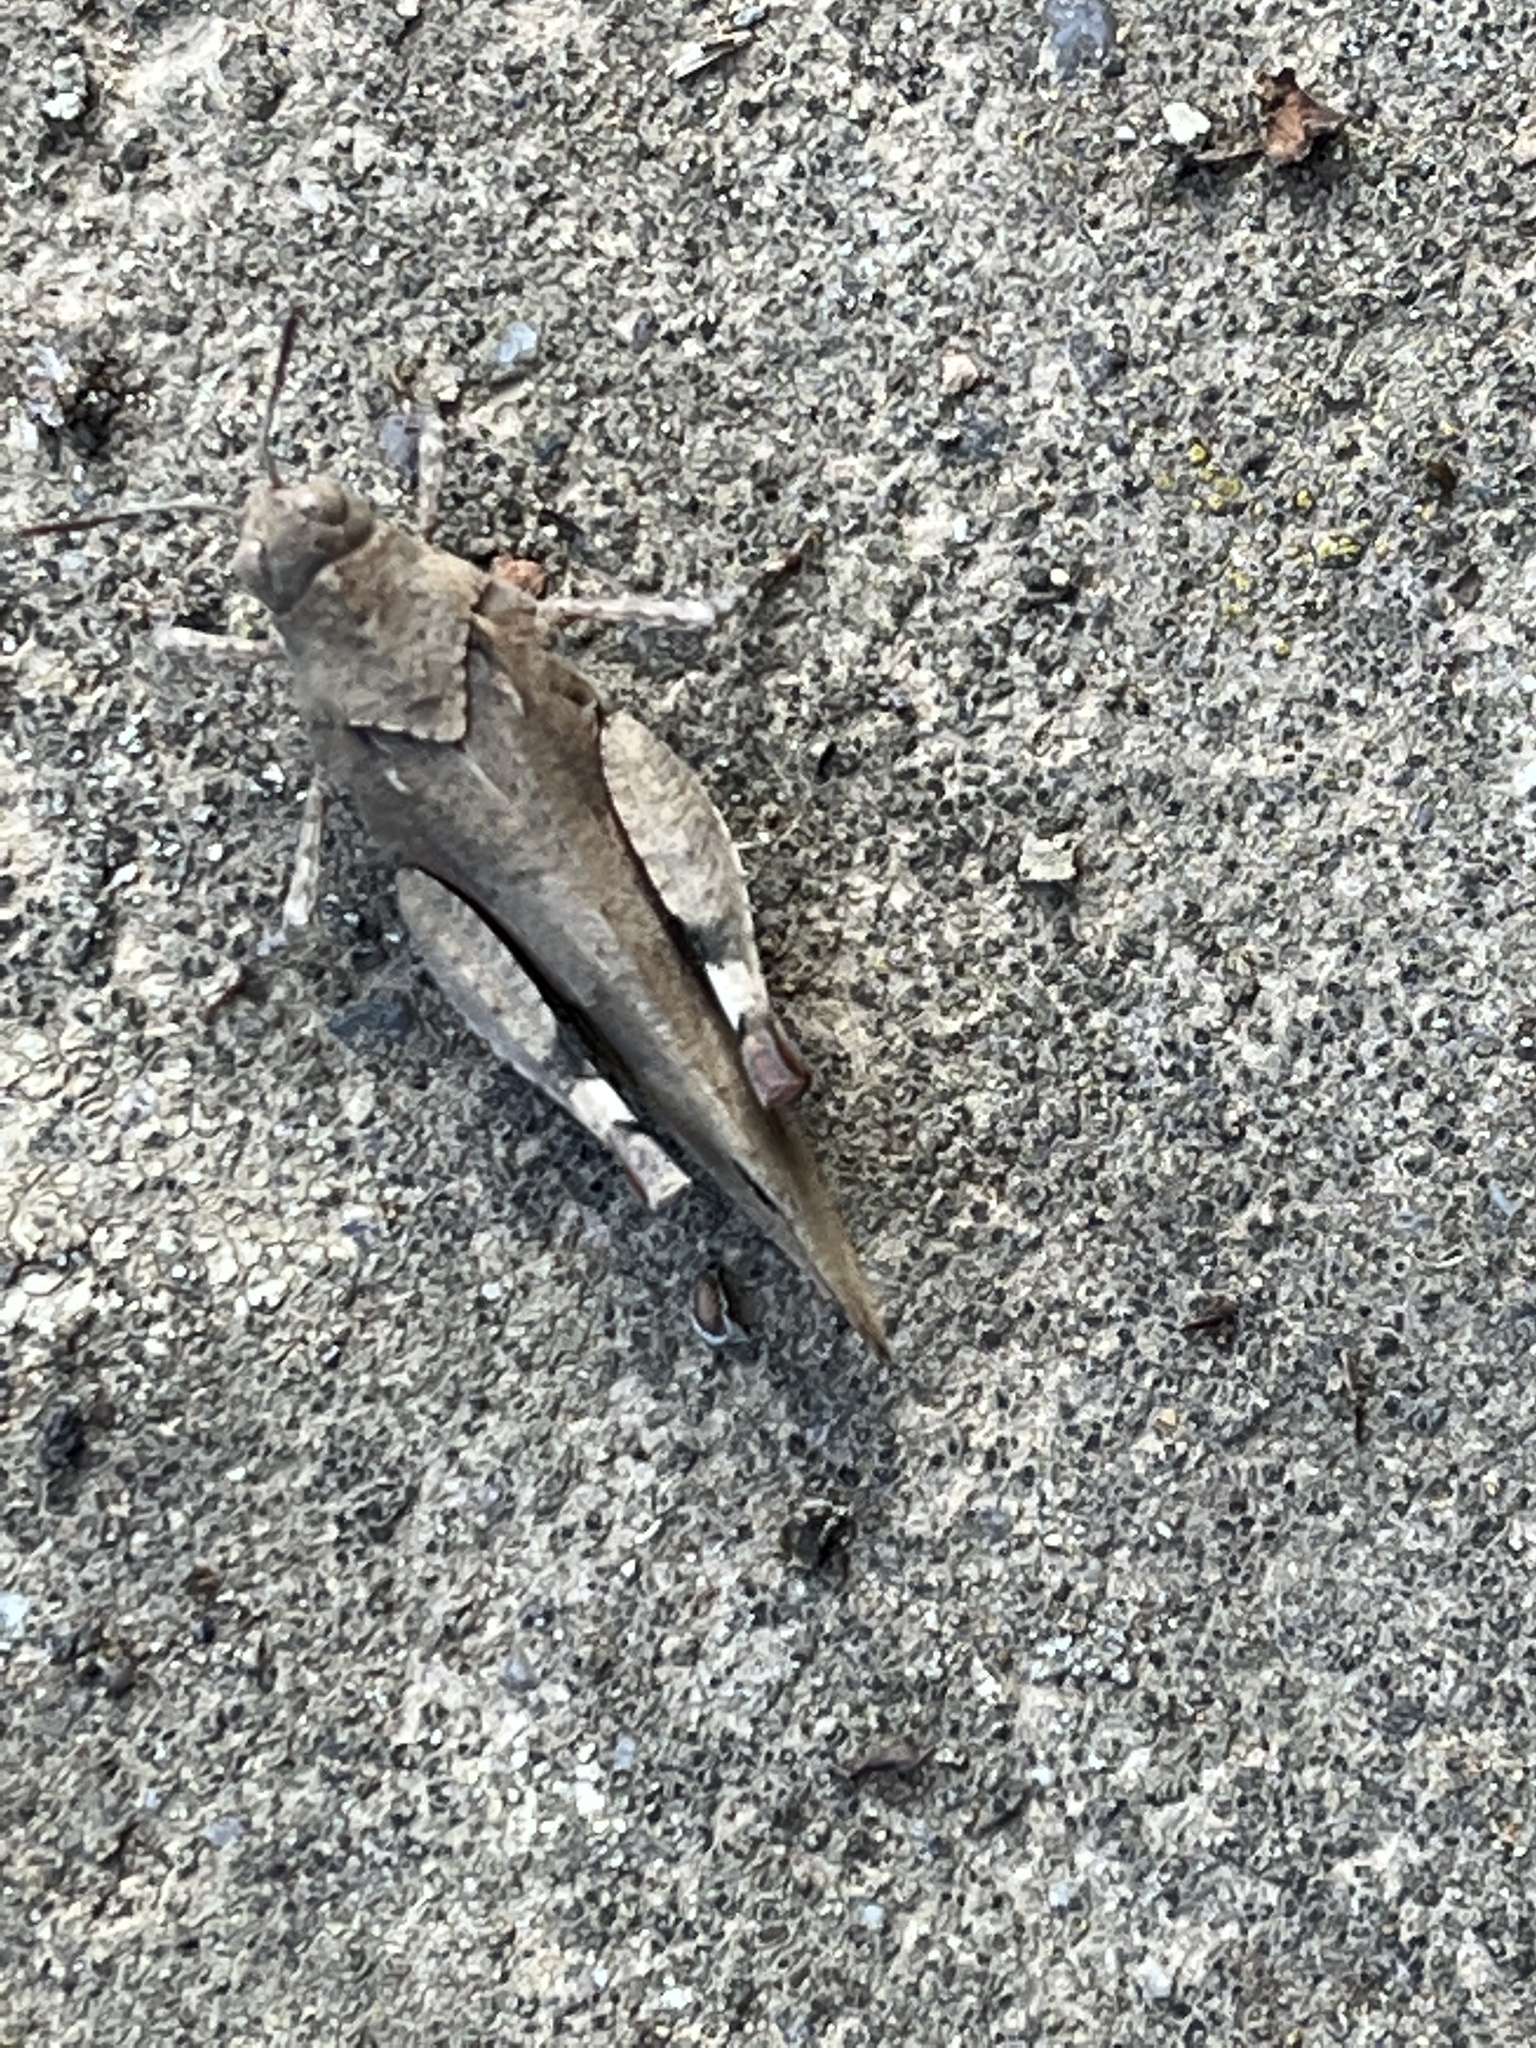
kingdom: Animalia
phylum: Arthropoda
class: Insecta
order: Orthoptera
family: Acrididae
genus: Oedipoda
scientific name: Oedipoda caerulescens
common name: Blue-winged grasshopper
